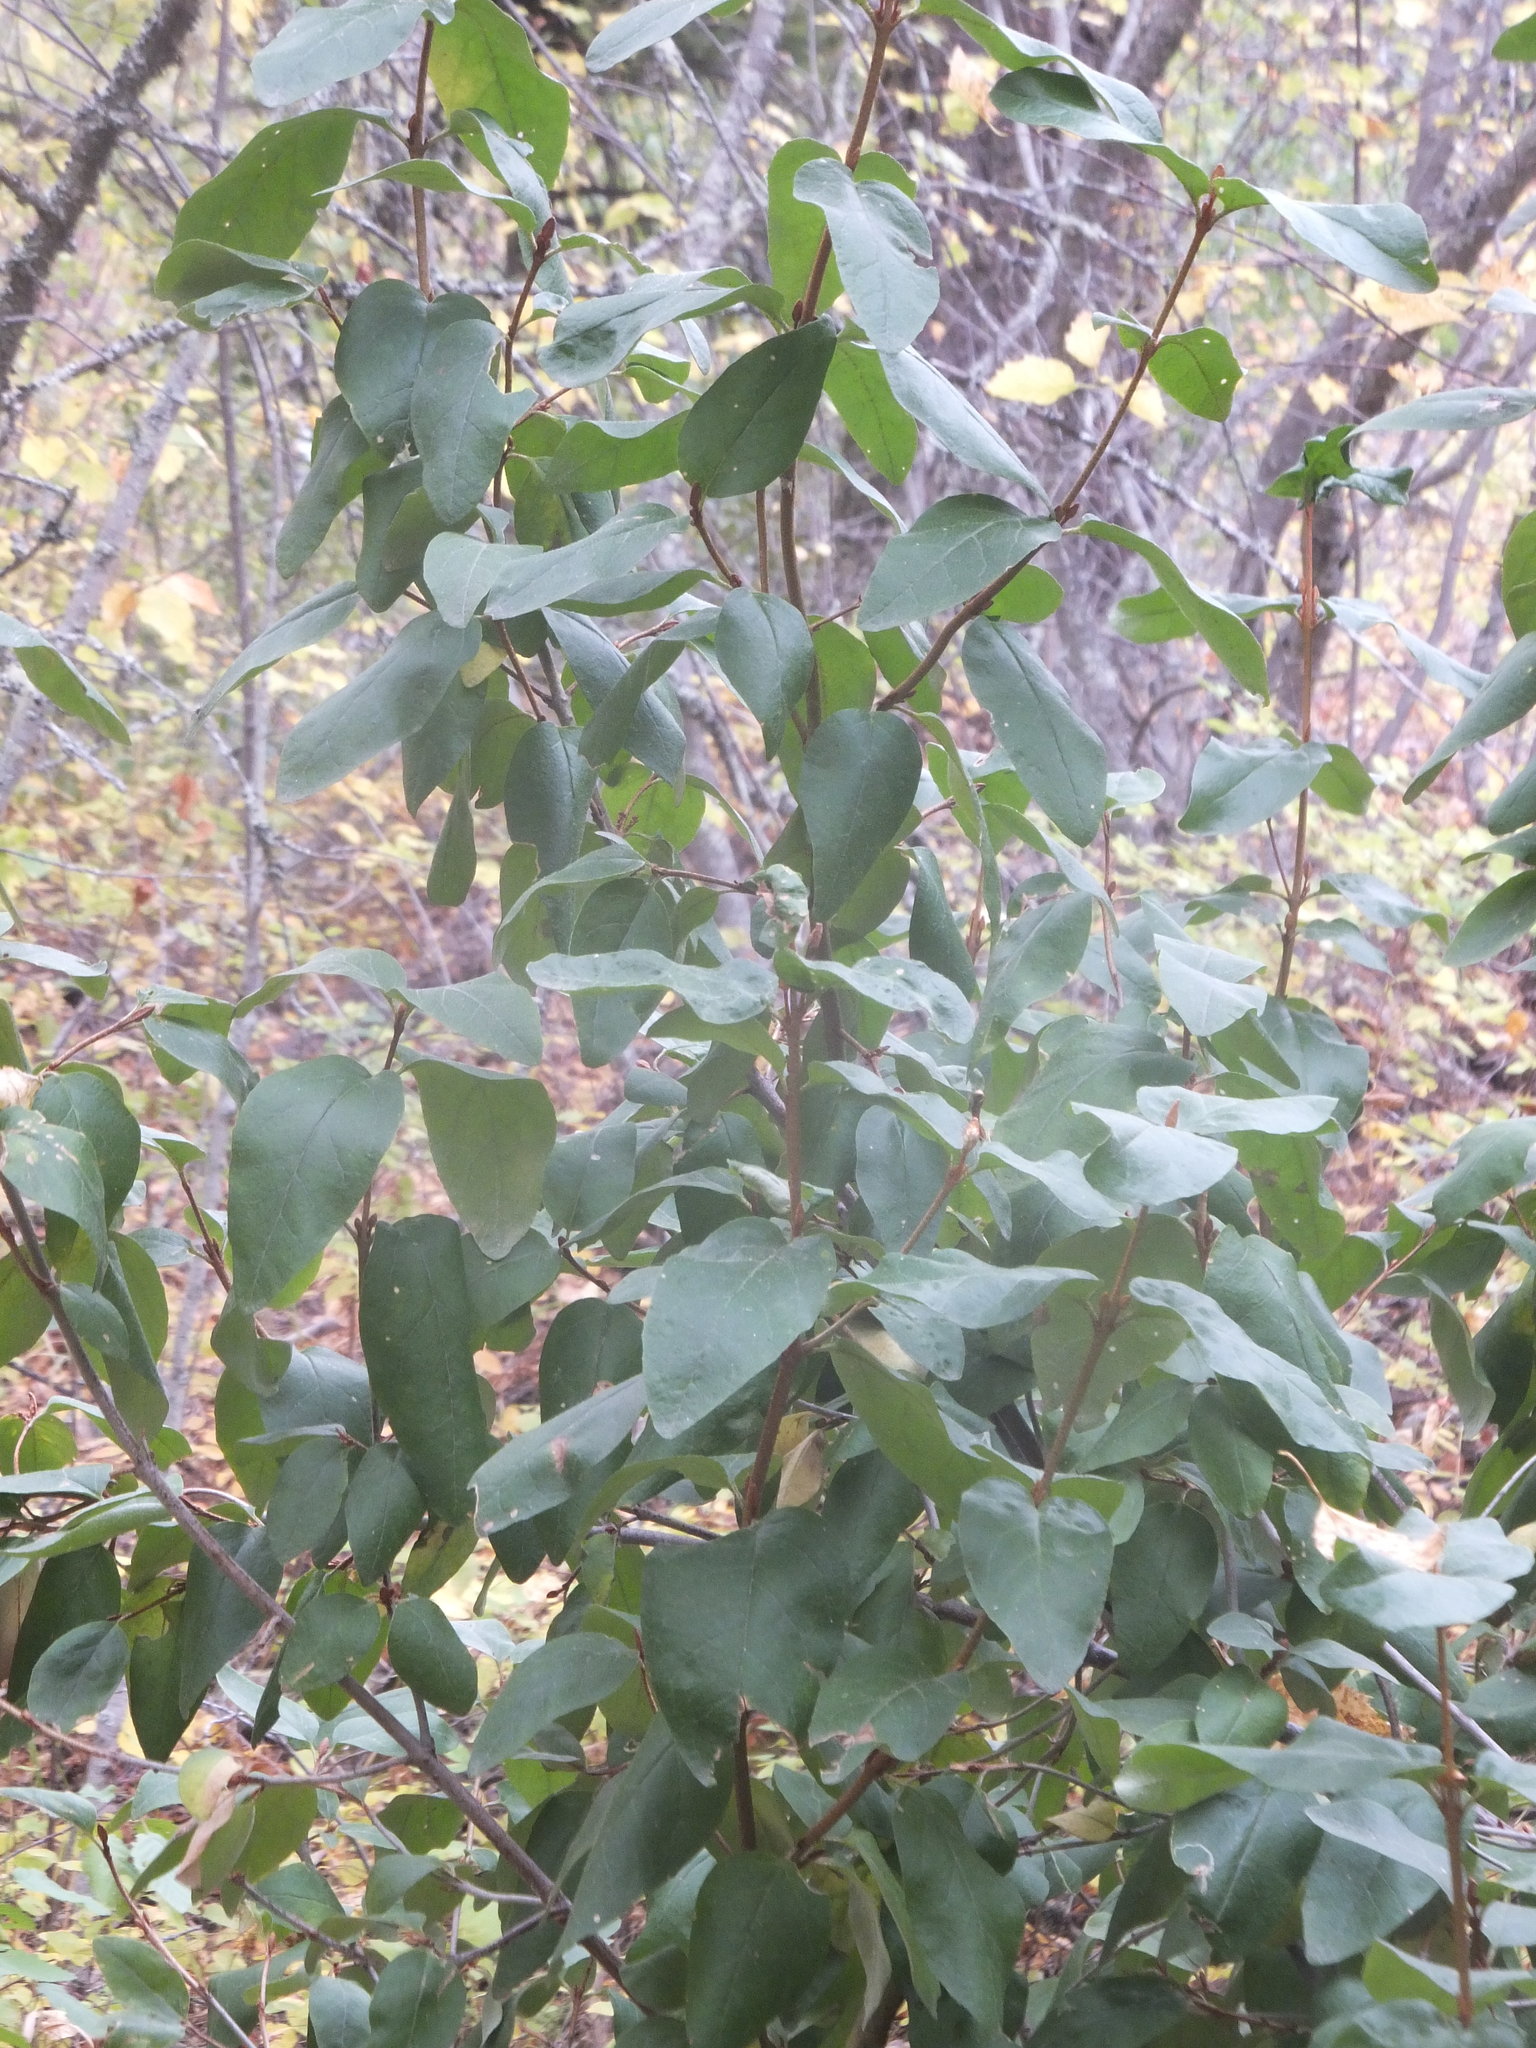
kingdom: Plantae
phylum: Tracheophyta
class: Magnoliopsida
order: Rosales
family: Elaeagnaceae
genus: Shepherdia
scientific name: Shepherdia canadensis
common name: Soapberry
